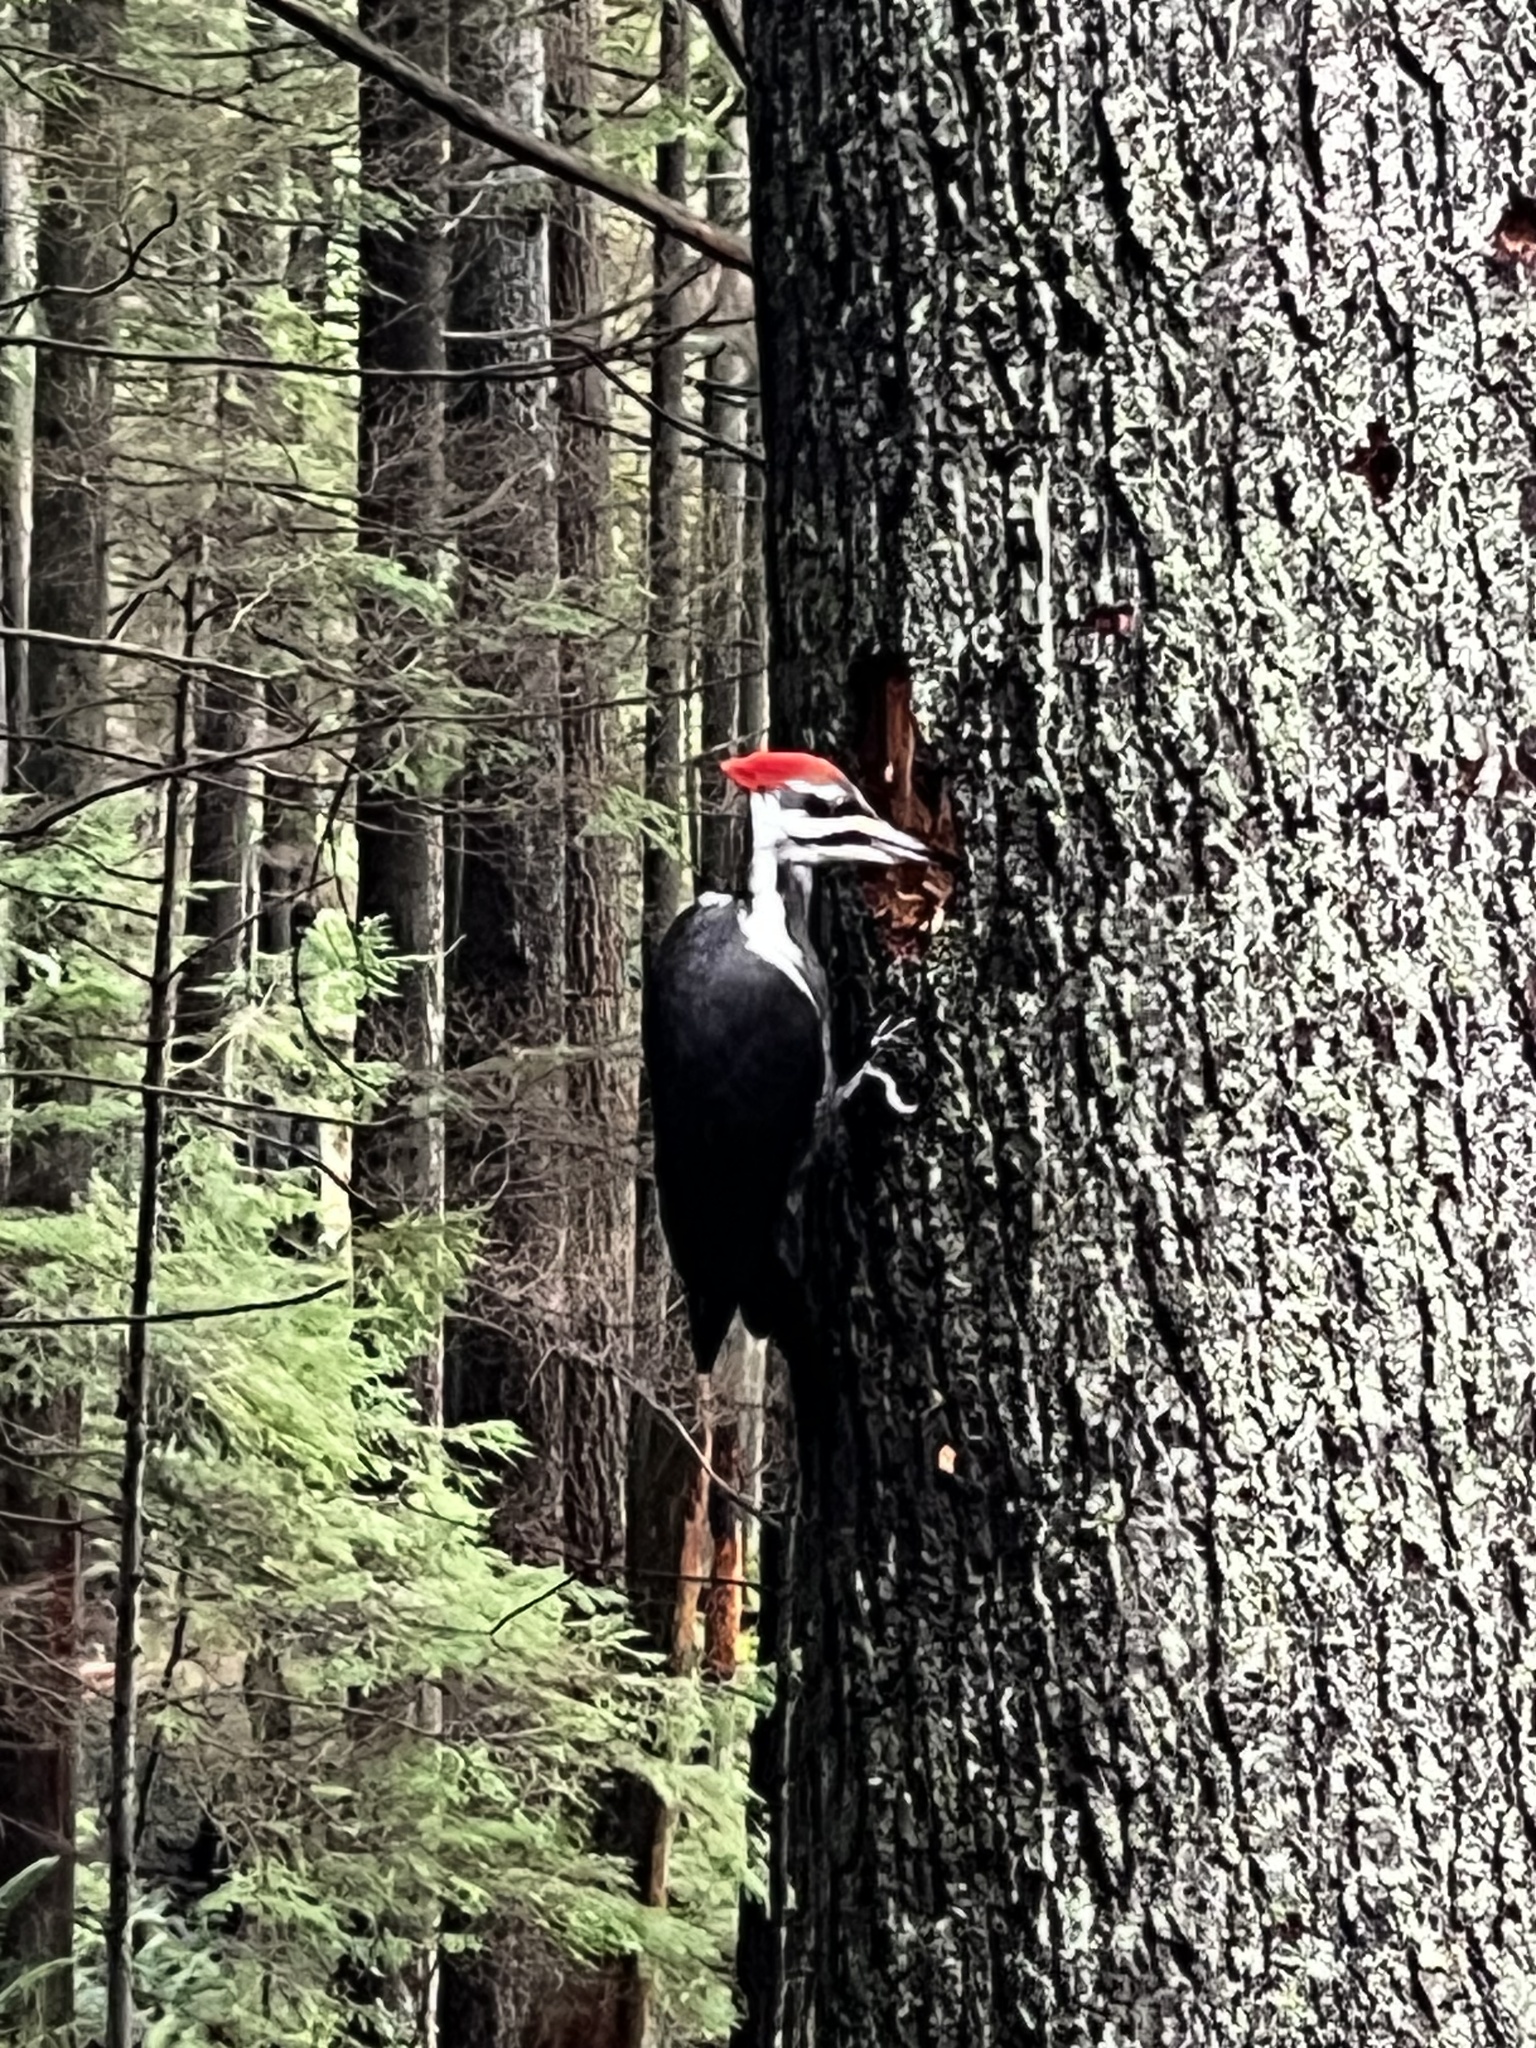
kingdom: Animalia
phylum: Chordata
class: Aves
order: Piciformes
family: Picidae
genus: Dryocopus
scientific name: Dryocopus pileatus
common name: Pileated woodpecker
